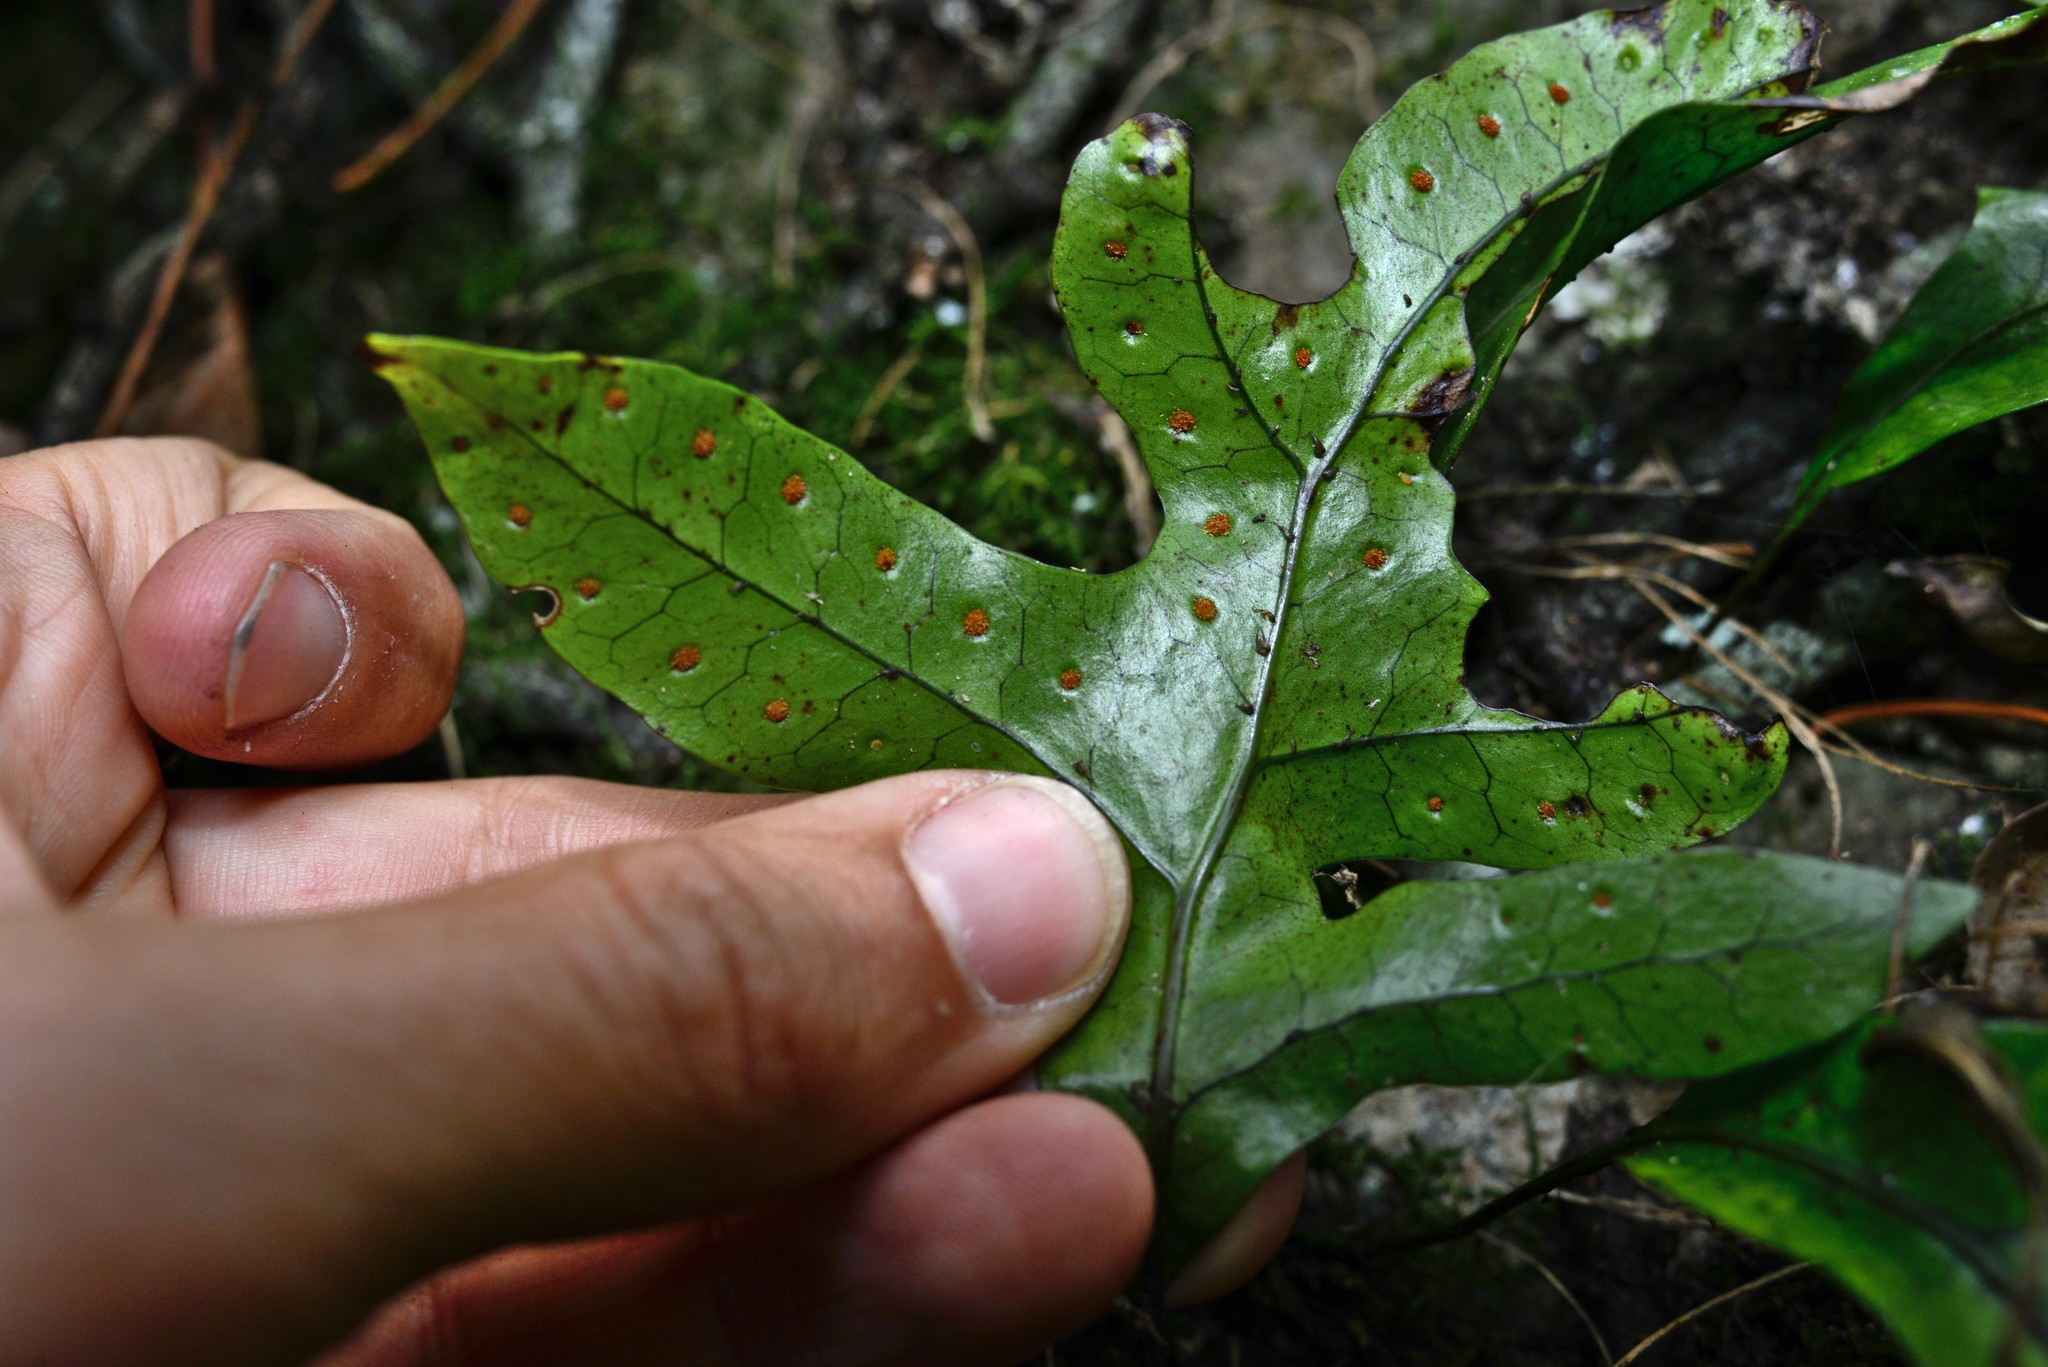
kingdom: Plantae
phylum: Tracheophyta
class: Polypodiopsida
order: Polypodiales
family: Polypodiaceae
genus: Lecanopteris
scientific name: Lecanopteris pustulata
